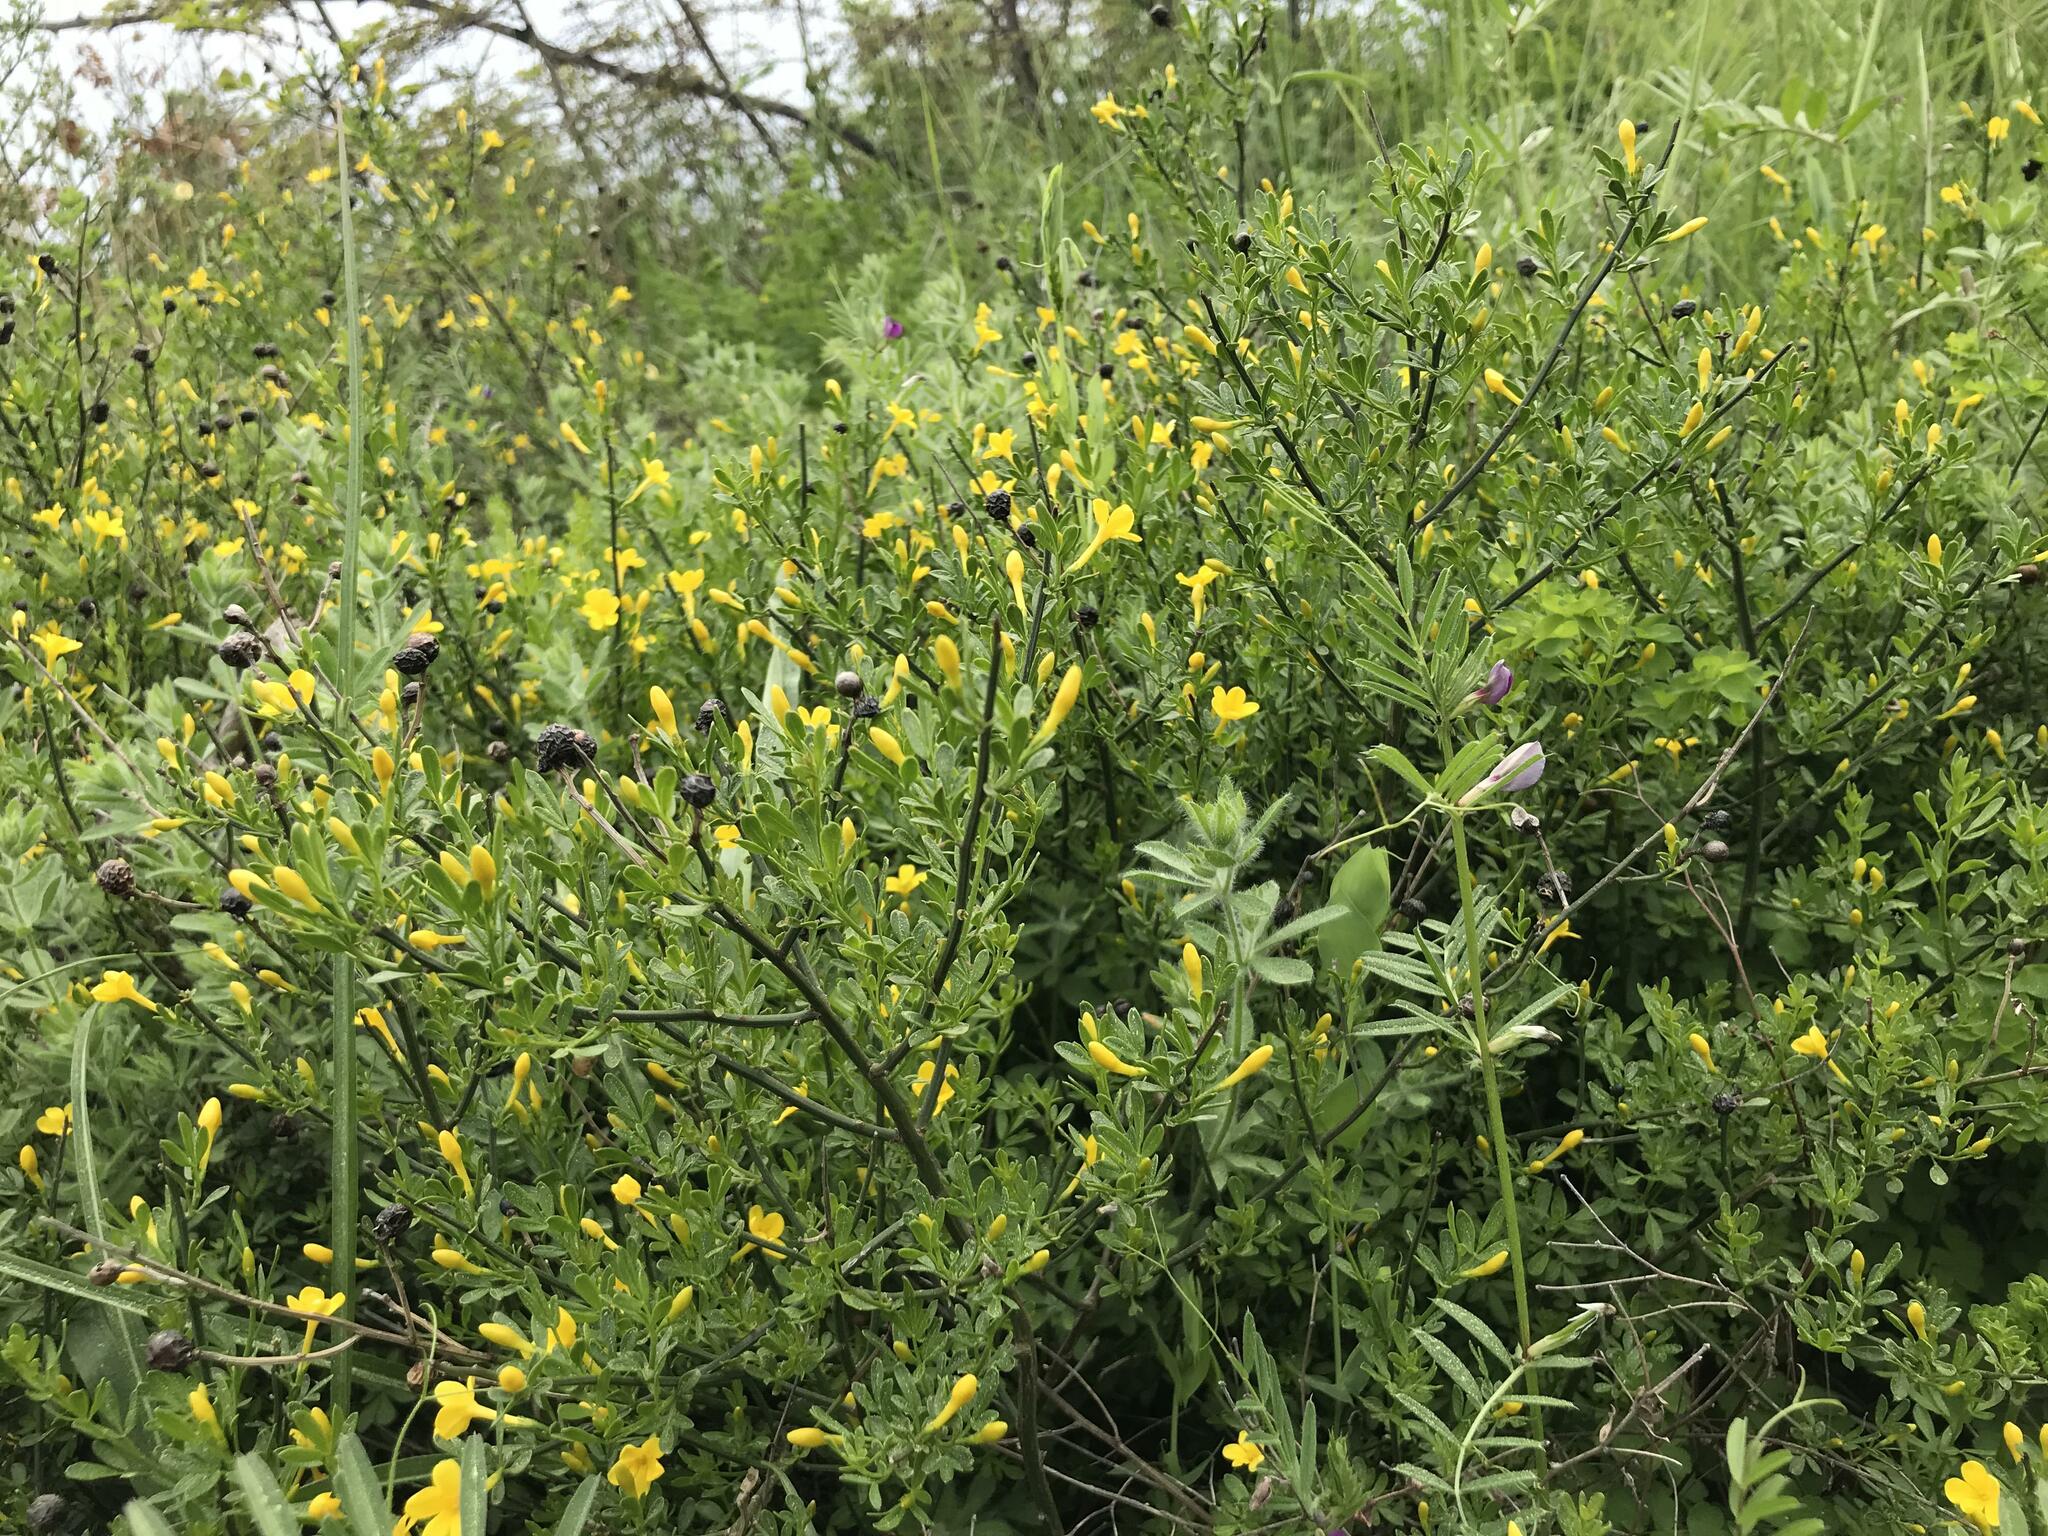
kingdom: Plantae
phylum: Tracheophyta
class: Magnoliopsida
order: Lamiales
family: Oleaceae
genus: Chrysojasminum
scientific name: Chrysojasminum fruticans
